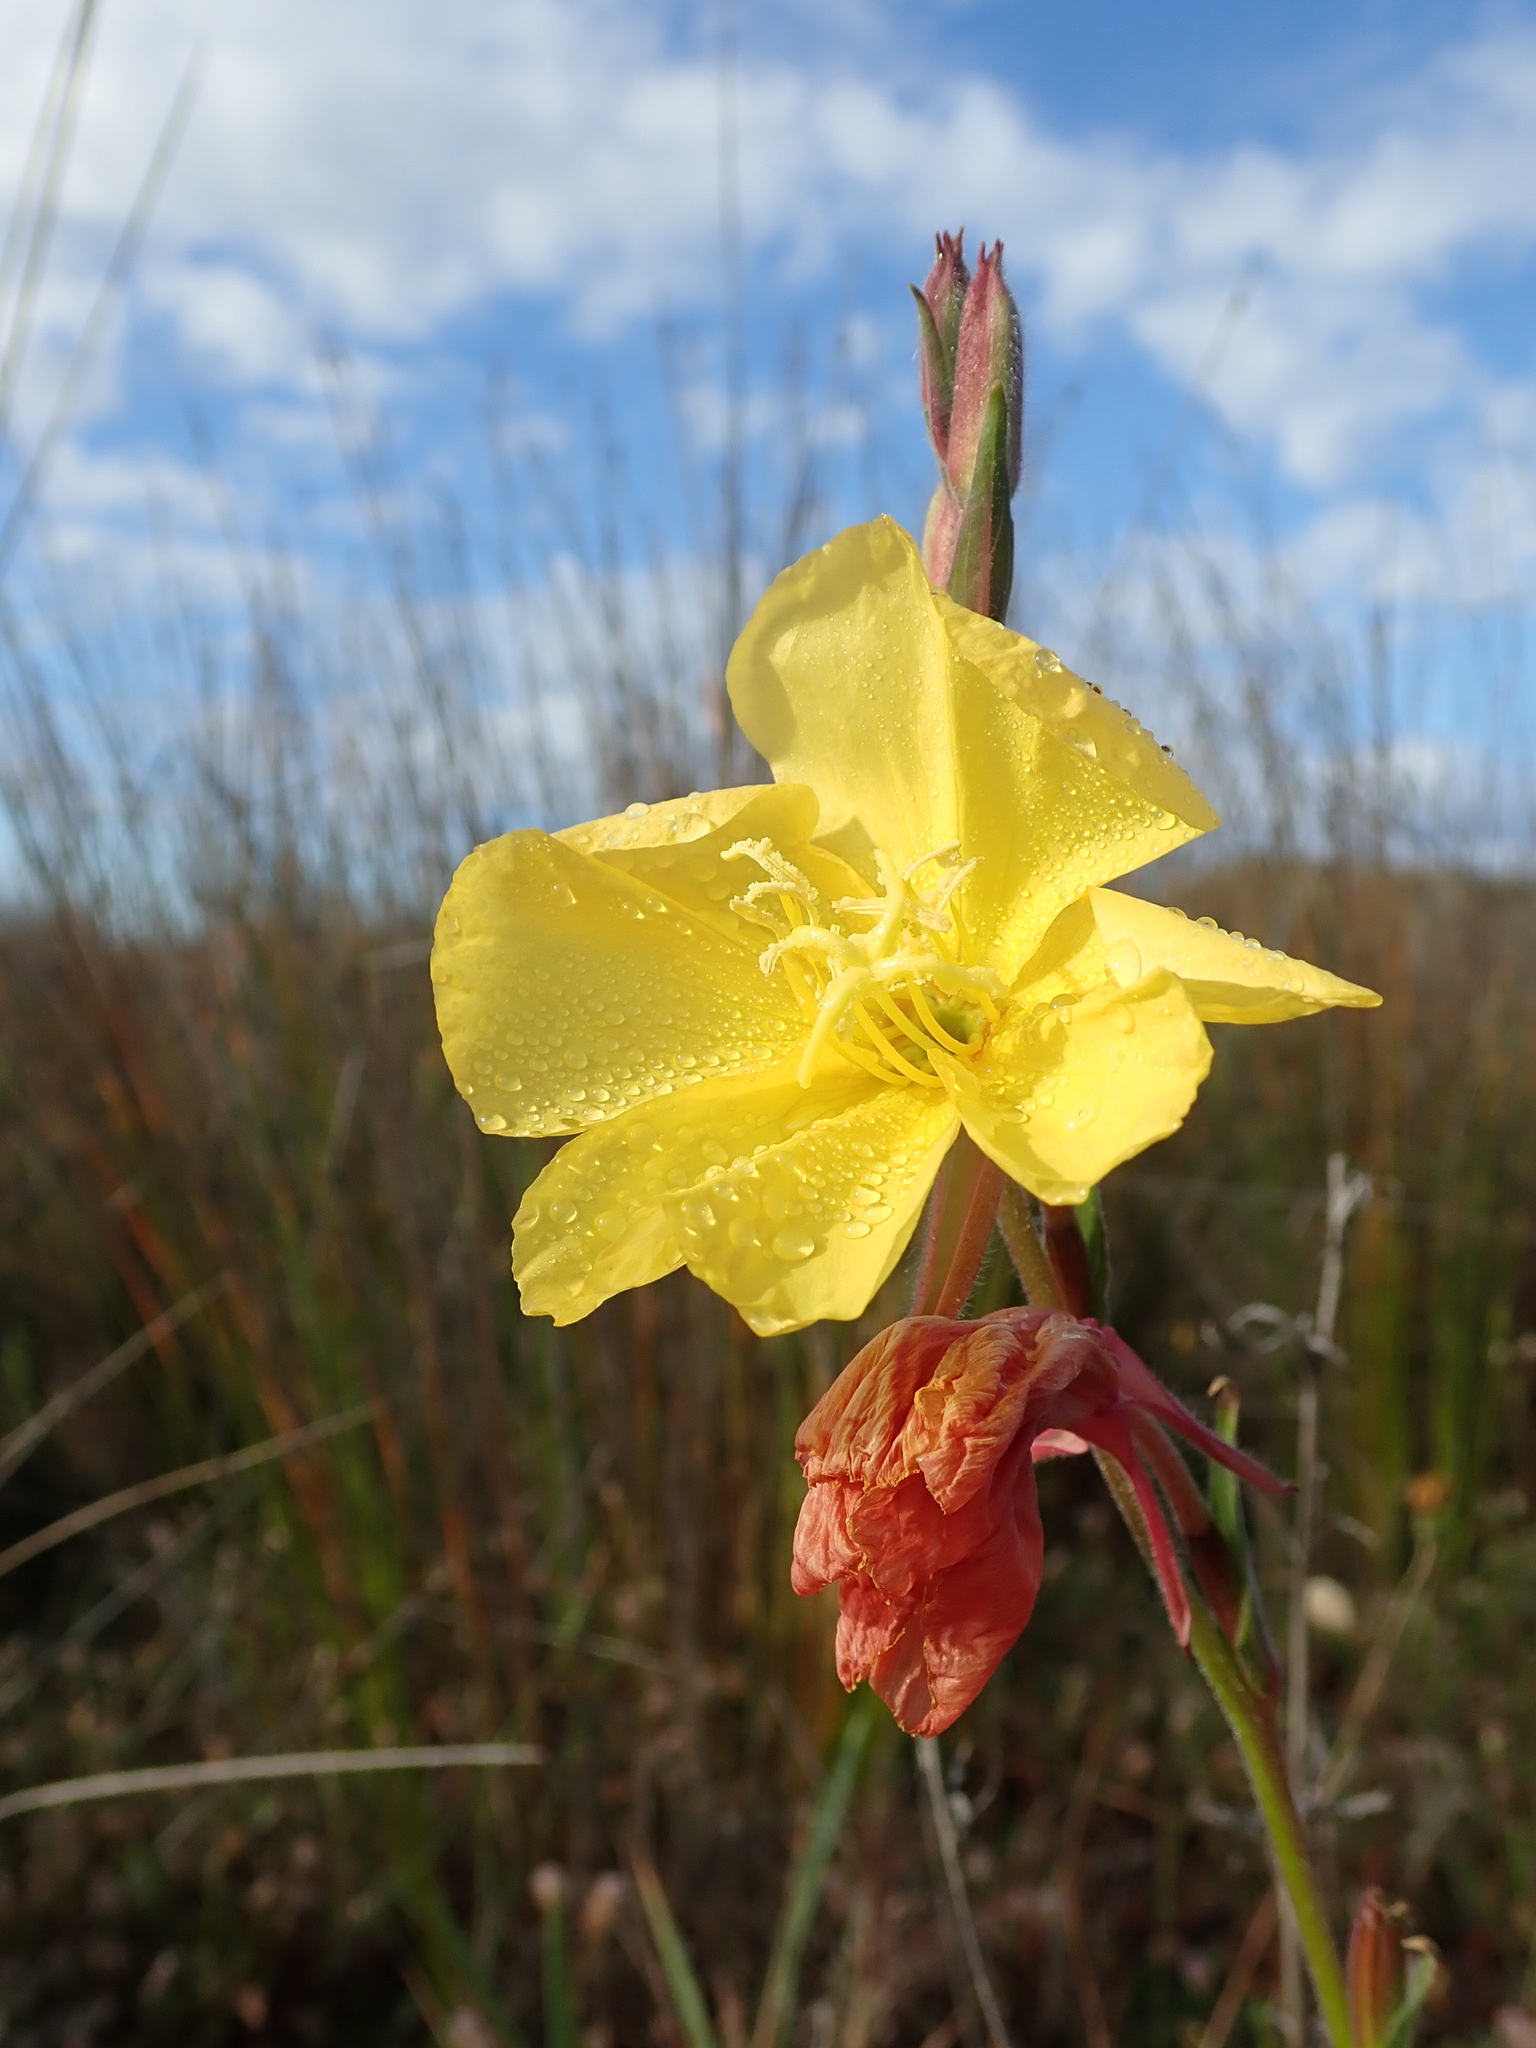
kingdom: Plantae
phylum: Tracheophyta
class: Magnoliopsida
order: Myrtales
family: Onagraceae
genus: Oenothera
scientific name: Oenothera stricta
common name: Fragrant evening-primrose
